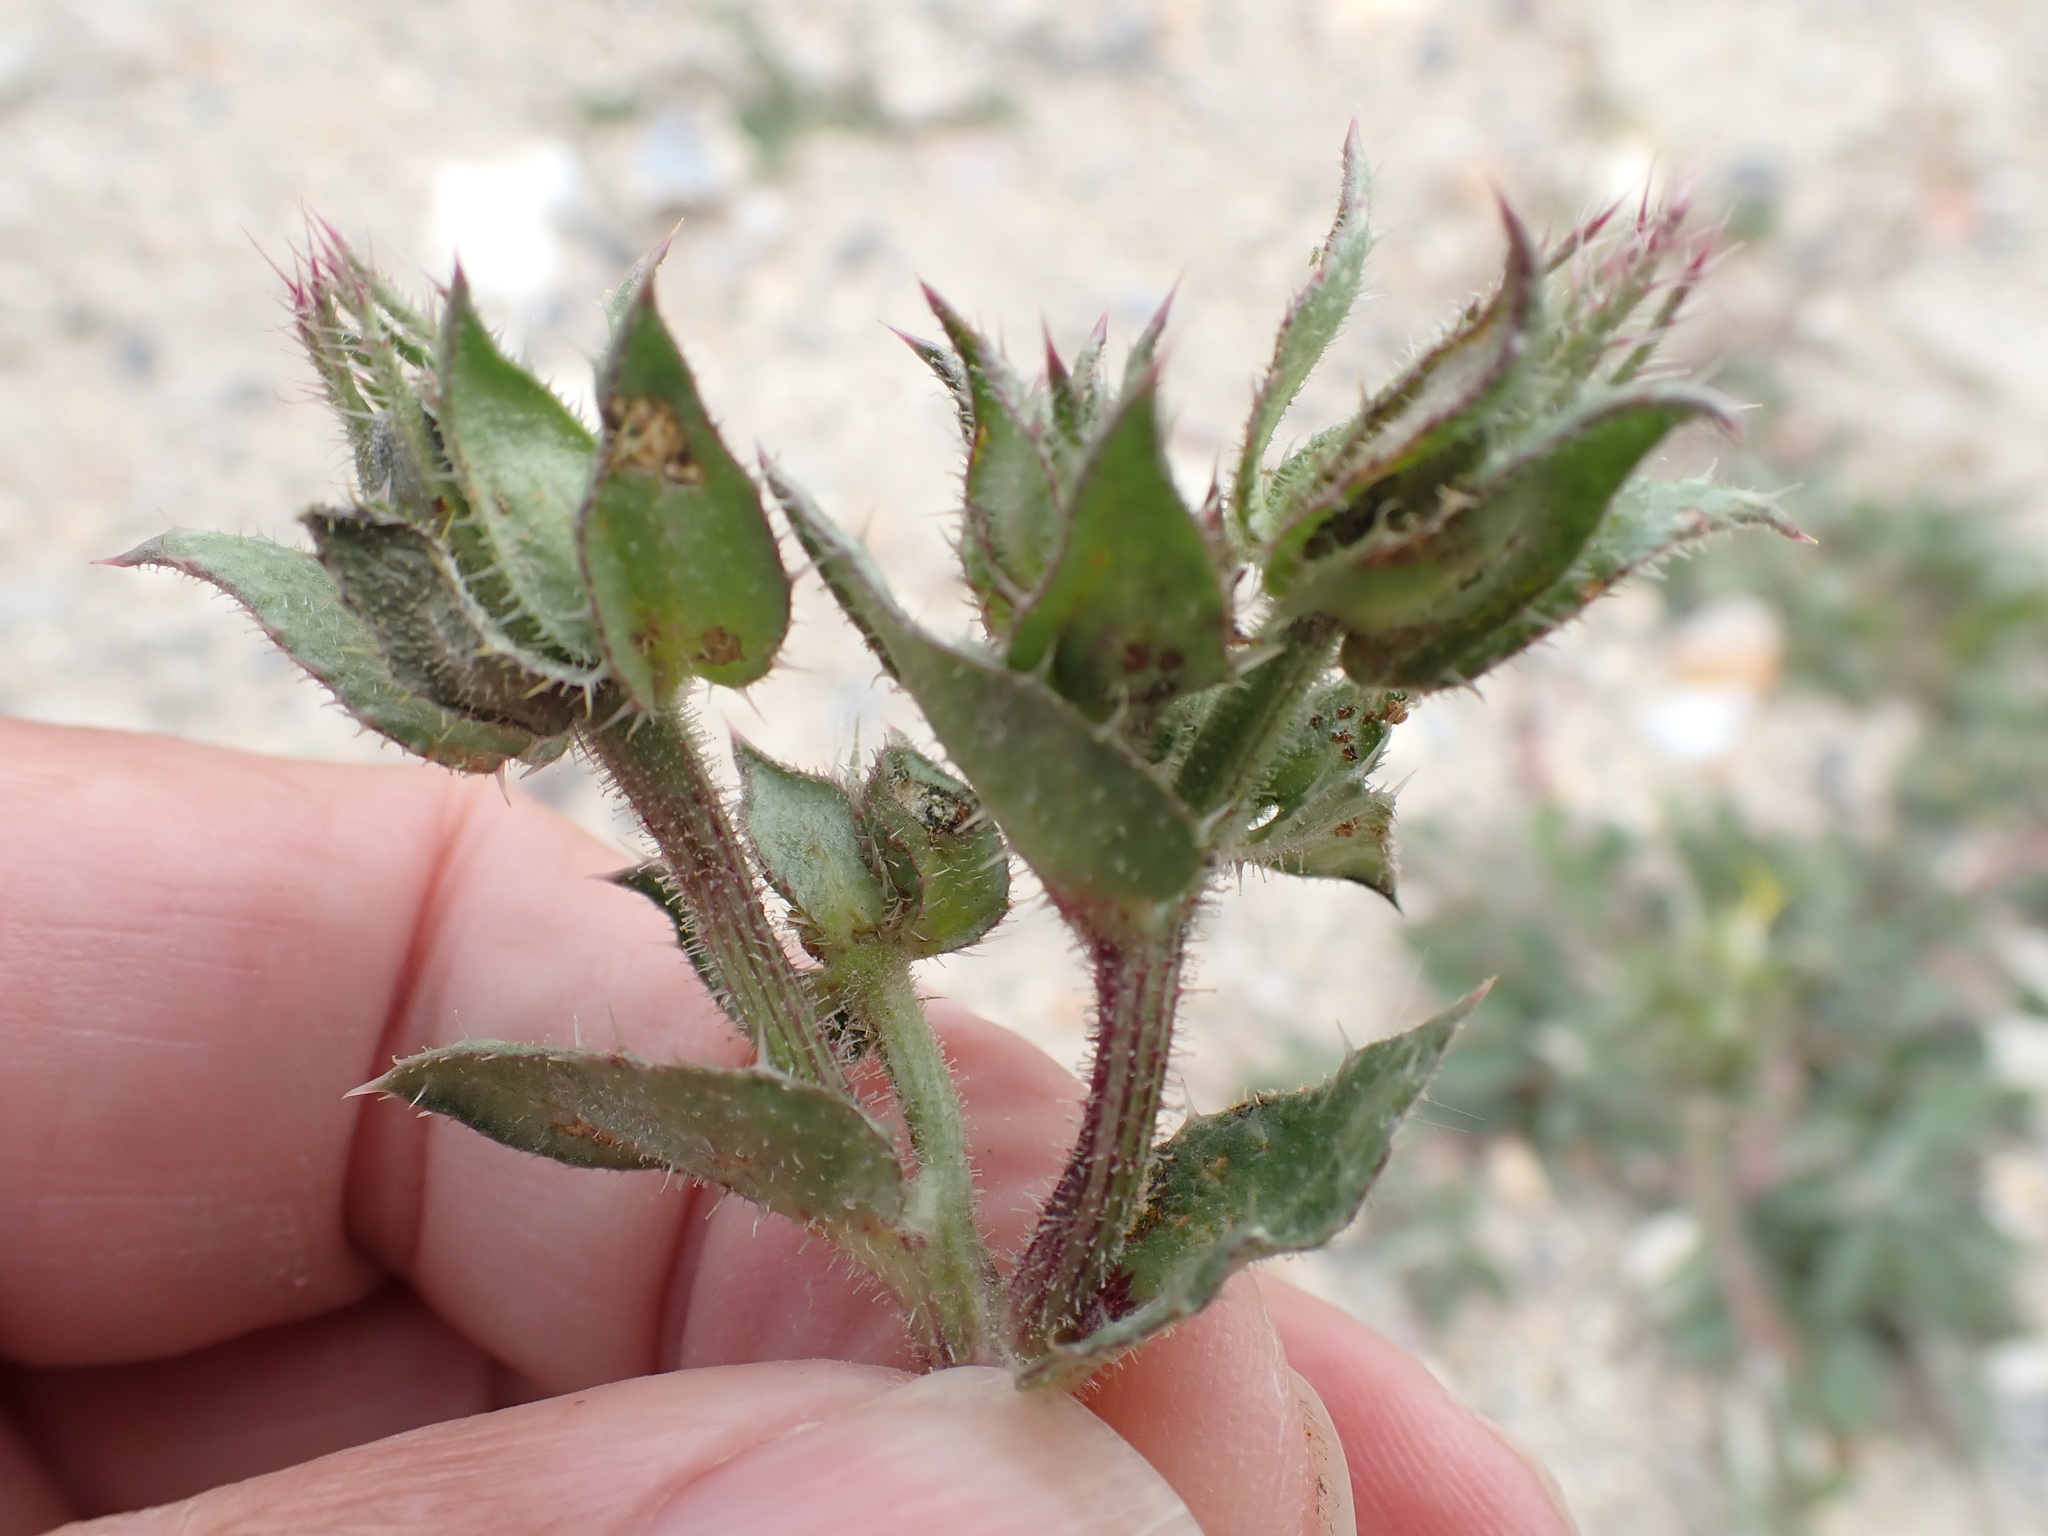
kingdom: Plantae
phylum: Tracheophyta
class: Magnoliopsida
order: Asterales
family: Asteraceae
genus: Helminthotheca
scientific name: Helminthotheca echioides
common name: Ox-tongue
